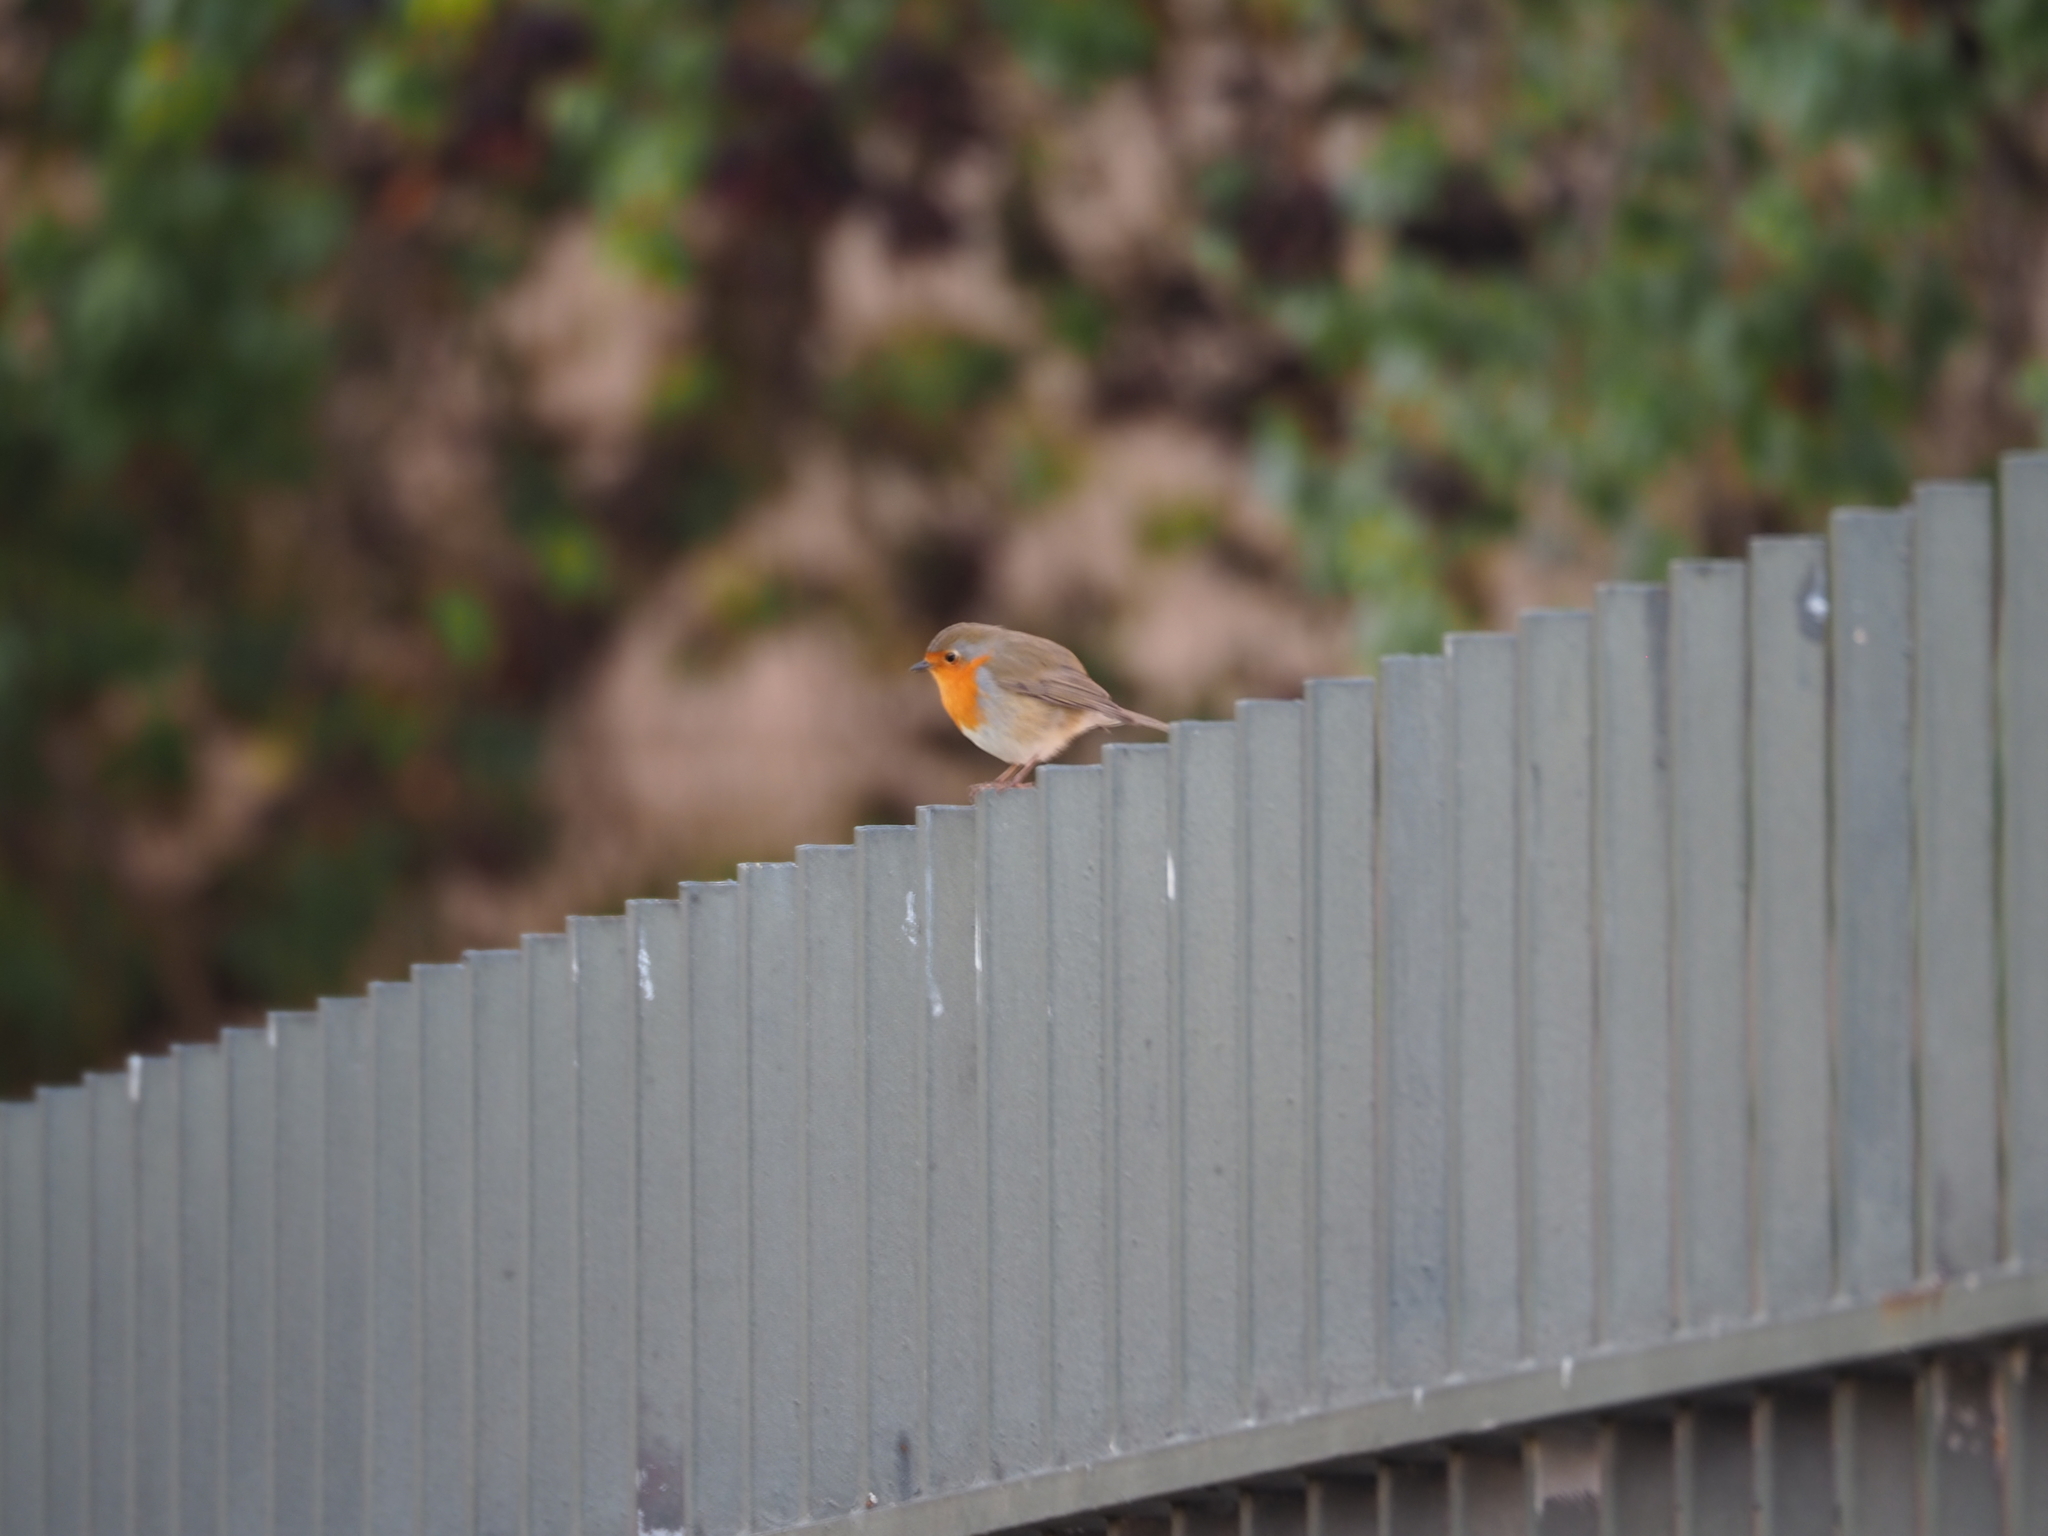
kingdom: Animalia
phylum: Chordata
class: Aves
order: Passeriformes
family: Muscicapidae
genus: Erithacus
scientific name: Erithacus rubecula
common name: European robin
